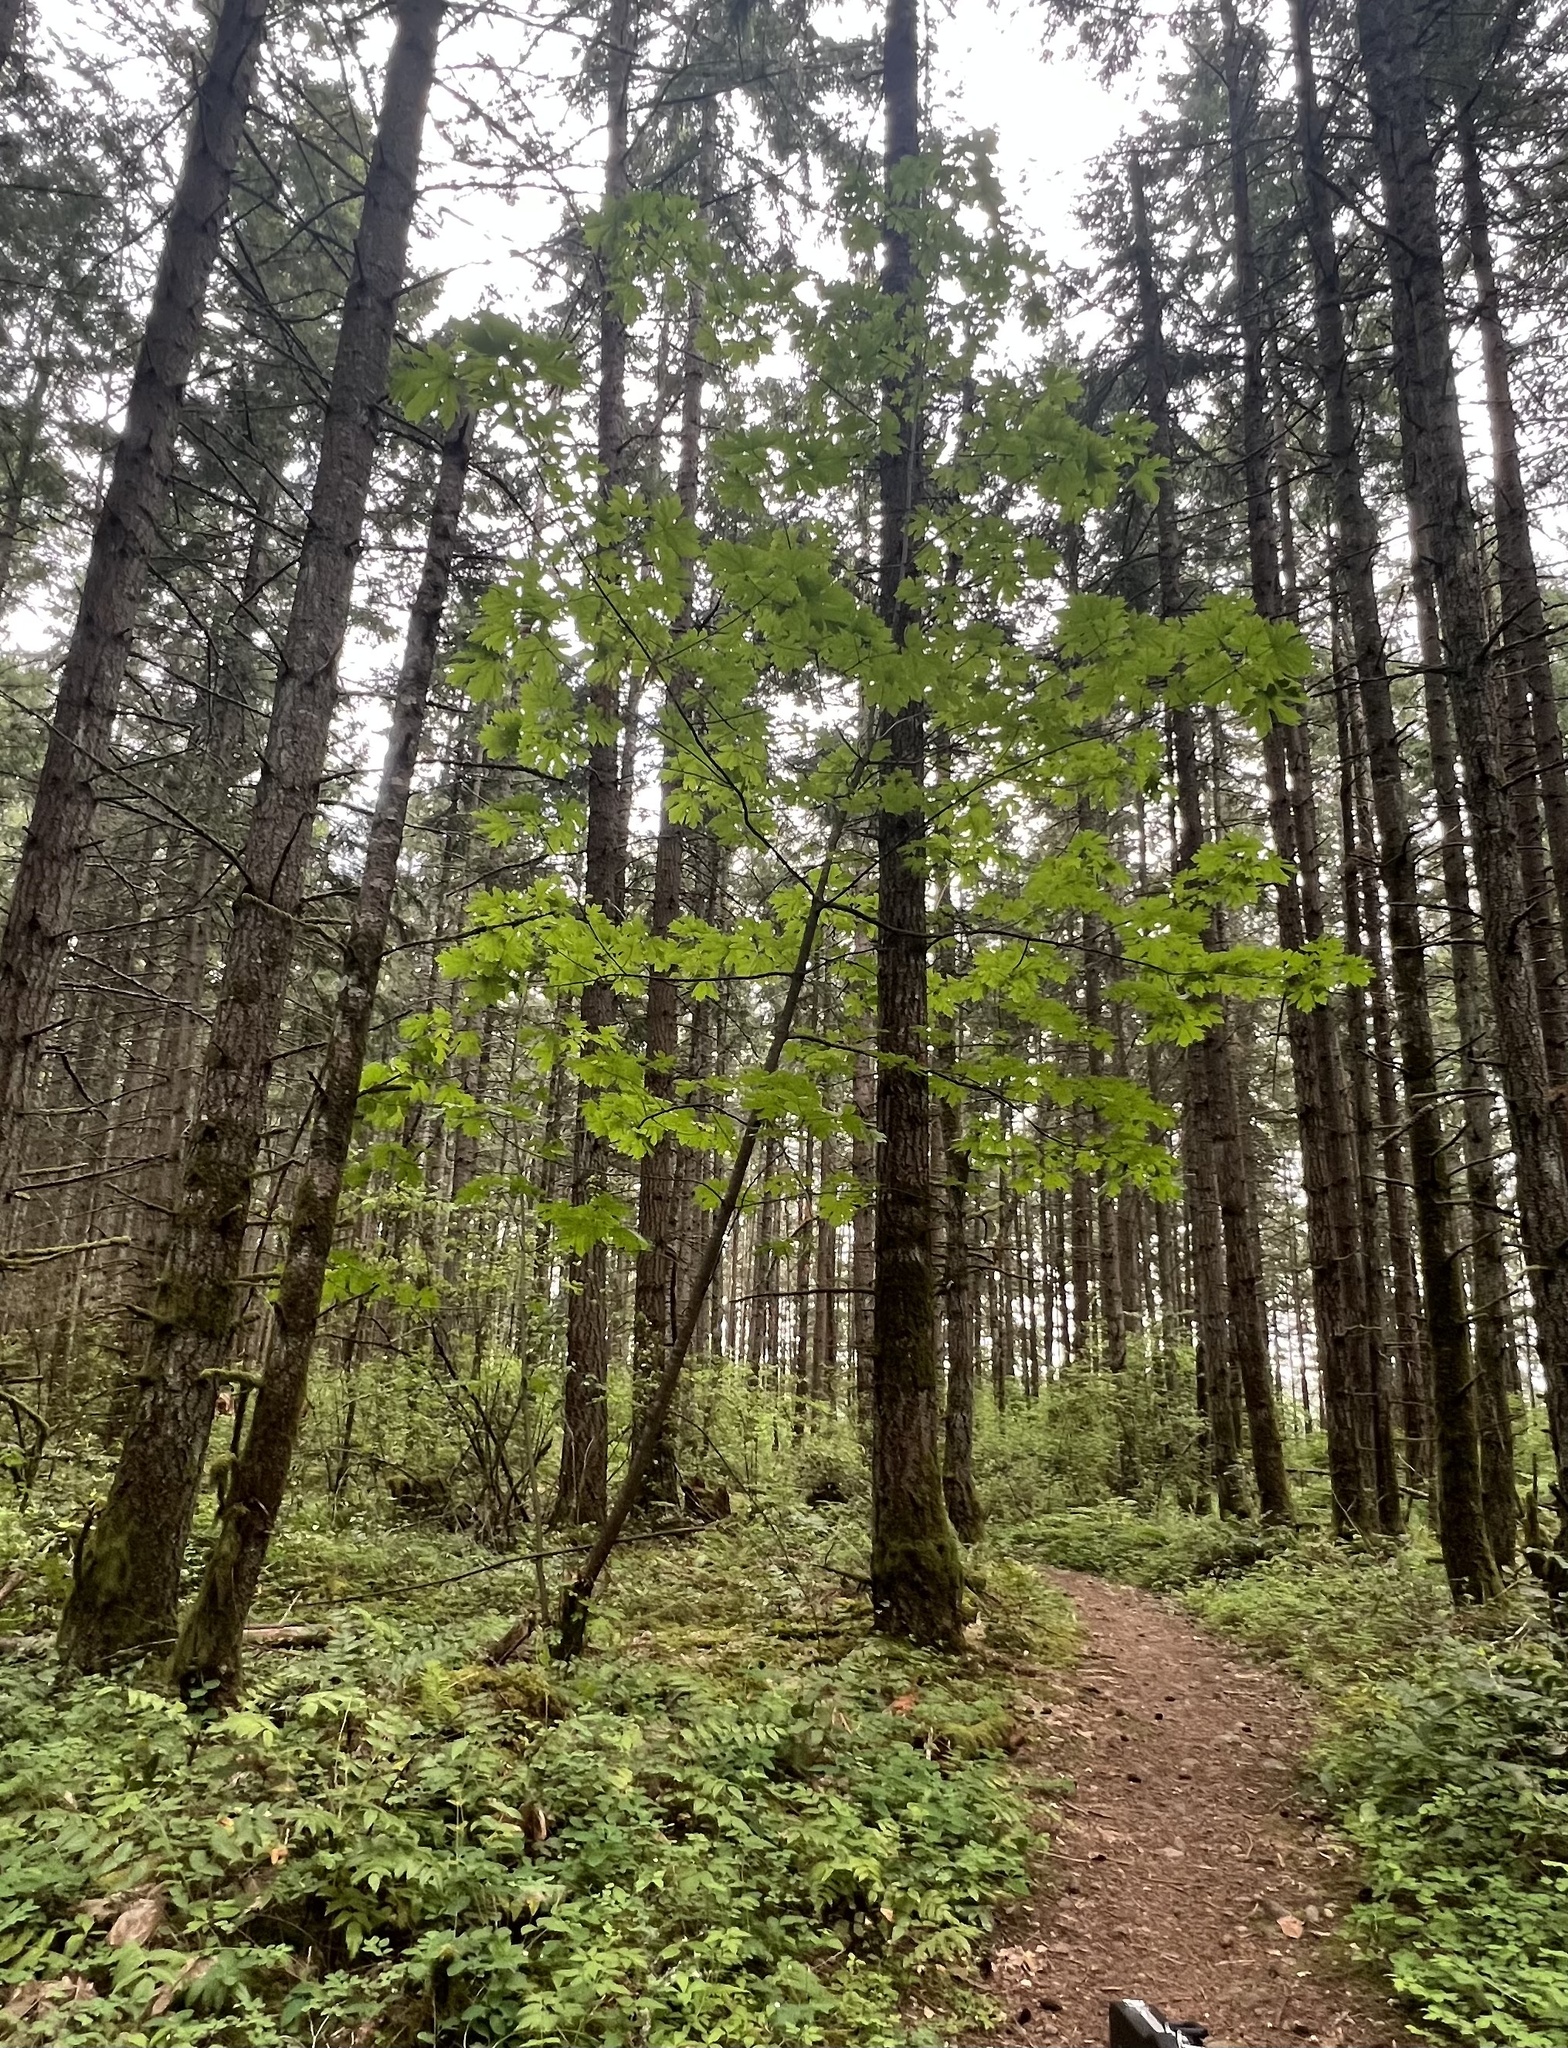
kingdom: Plantae
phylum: Tracheophyta
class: Magnoliopsida
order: Sapindales
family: Sapindaceae
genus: Acer
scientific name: Acer macrophyllum
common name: Oregon maple
